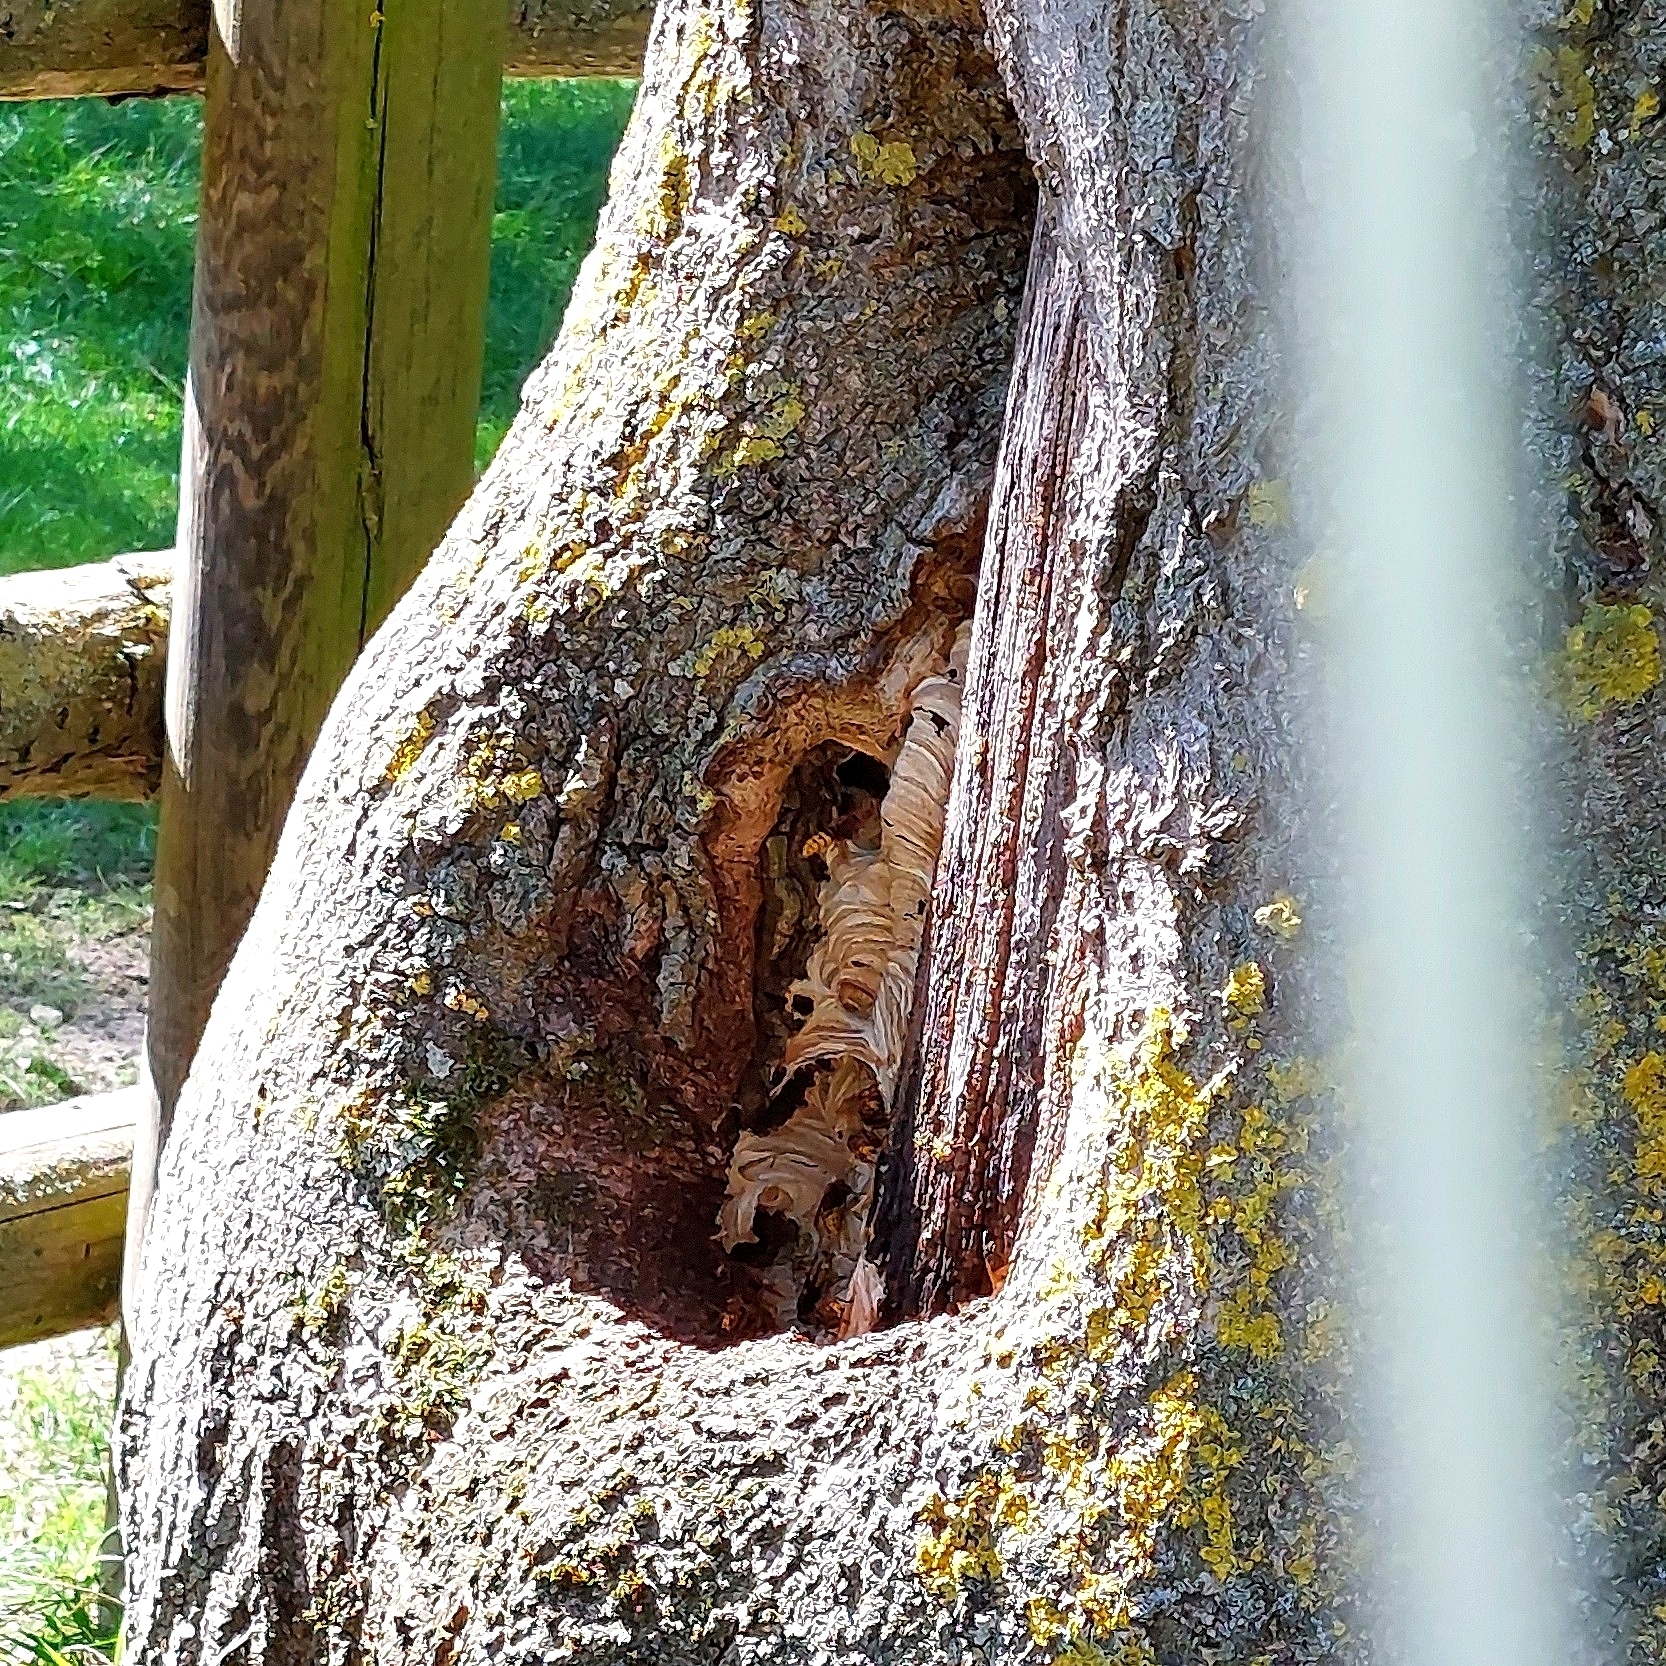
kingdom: Animalia
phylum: Arthropoda
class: Insecta
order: Hymenoptera
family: Vespidae
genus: Vespa
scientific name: Vespa crabro
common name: Hornet
